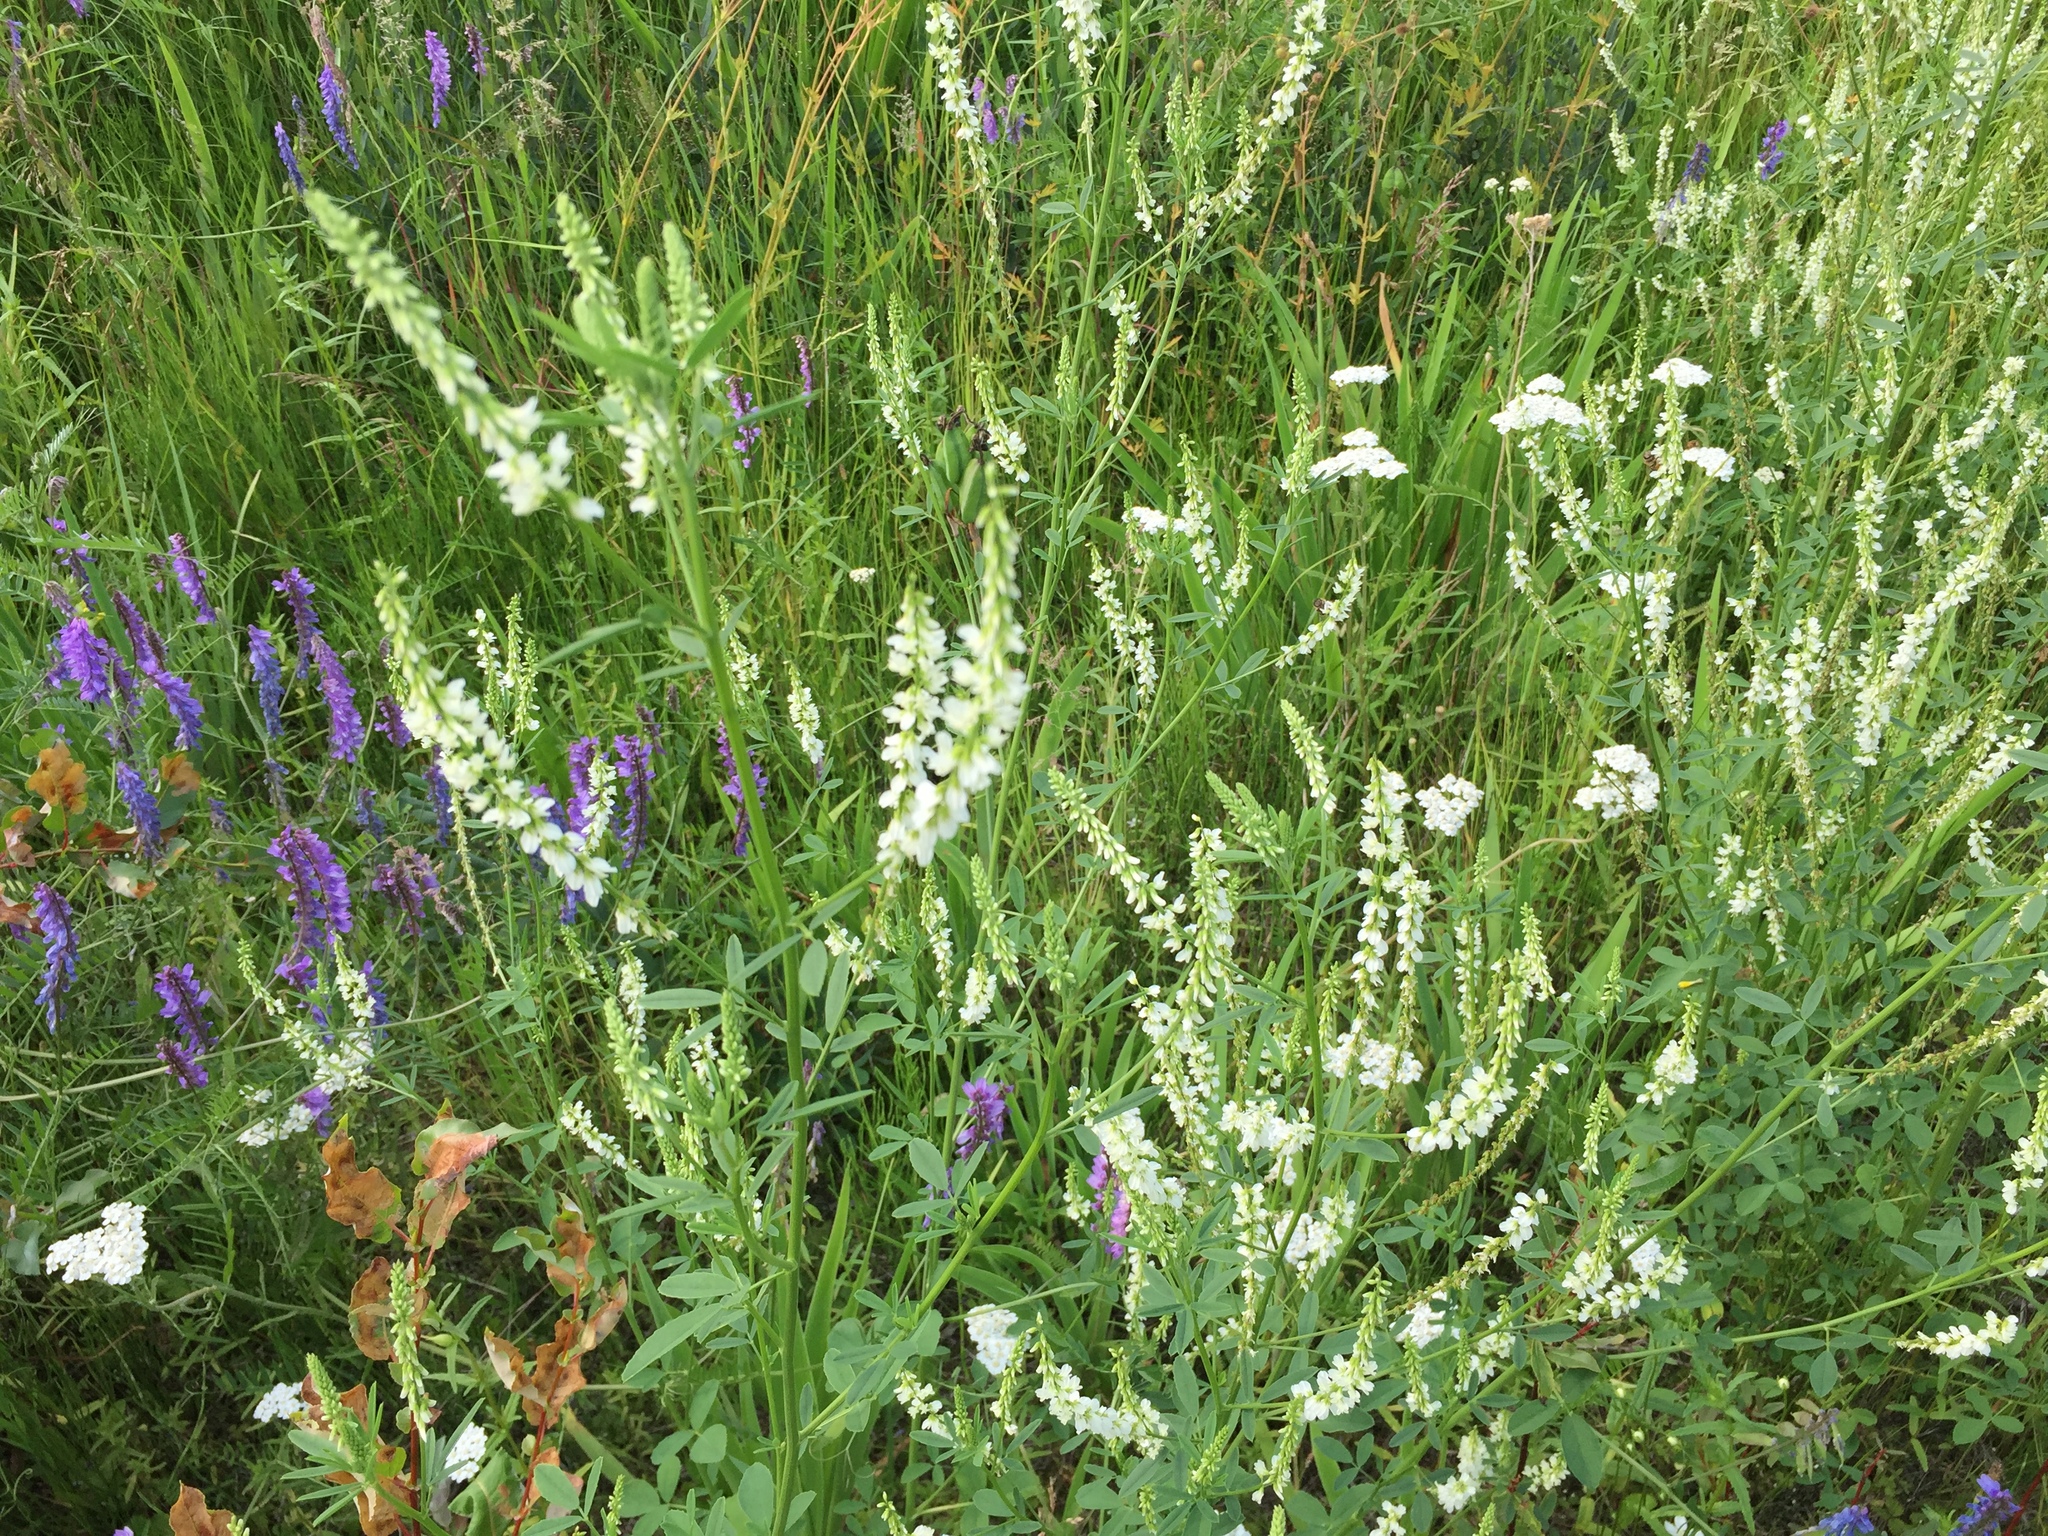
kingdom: Plantae
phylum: Tracheophyta
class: Magnoliopsida
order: Fabales
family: Fabaceae
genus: Melilotus
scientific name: Melilotus albus
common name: White melilot
